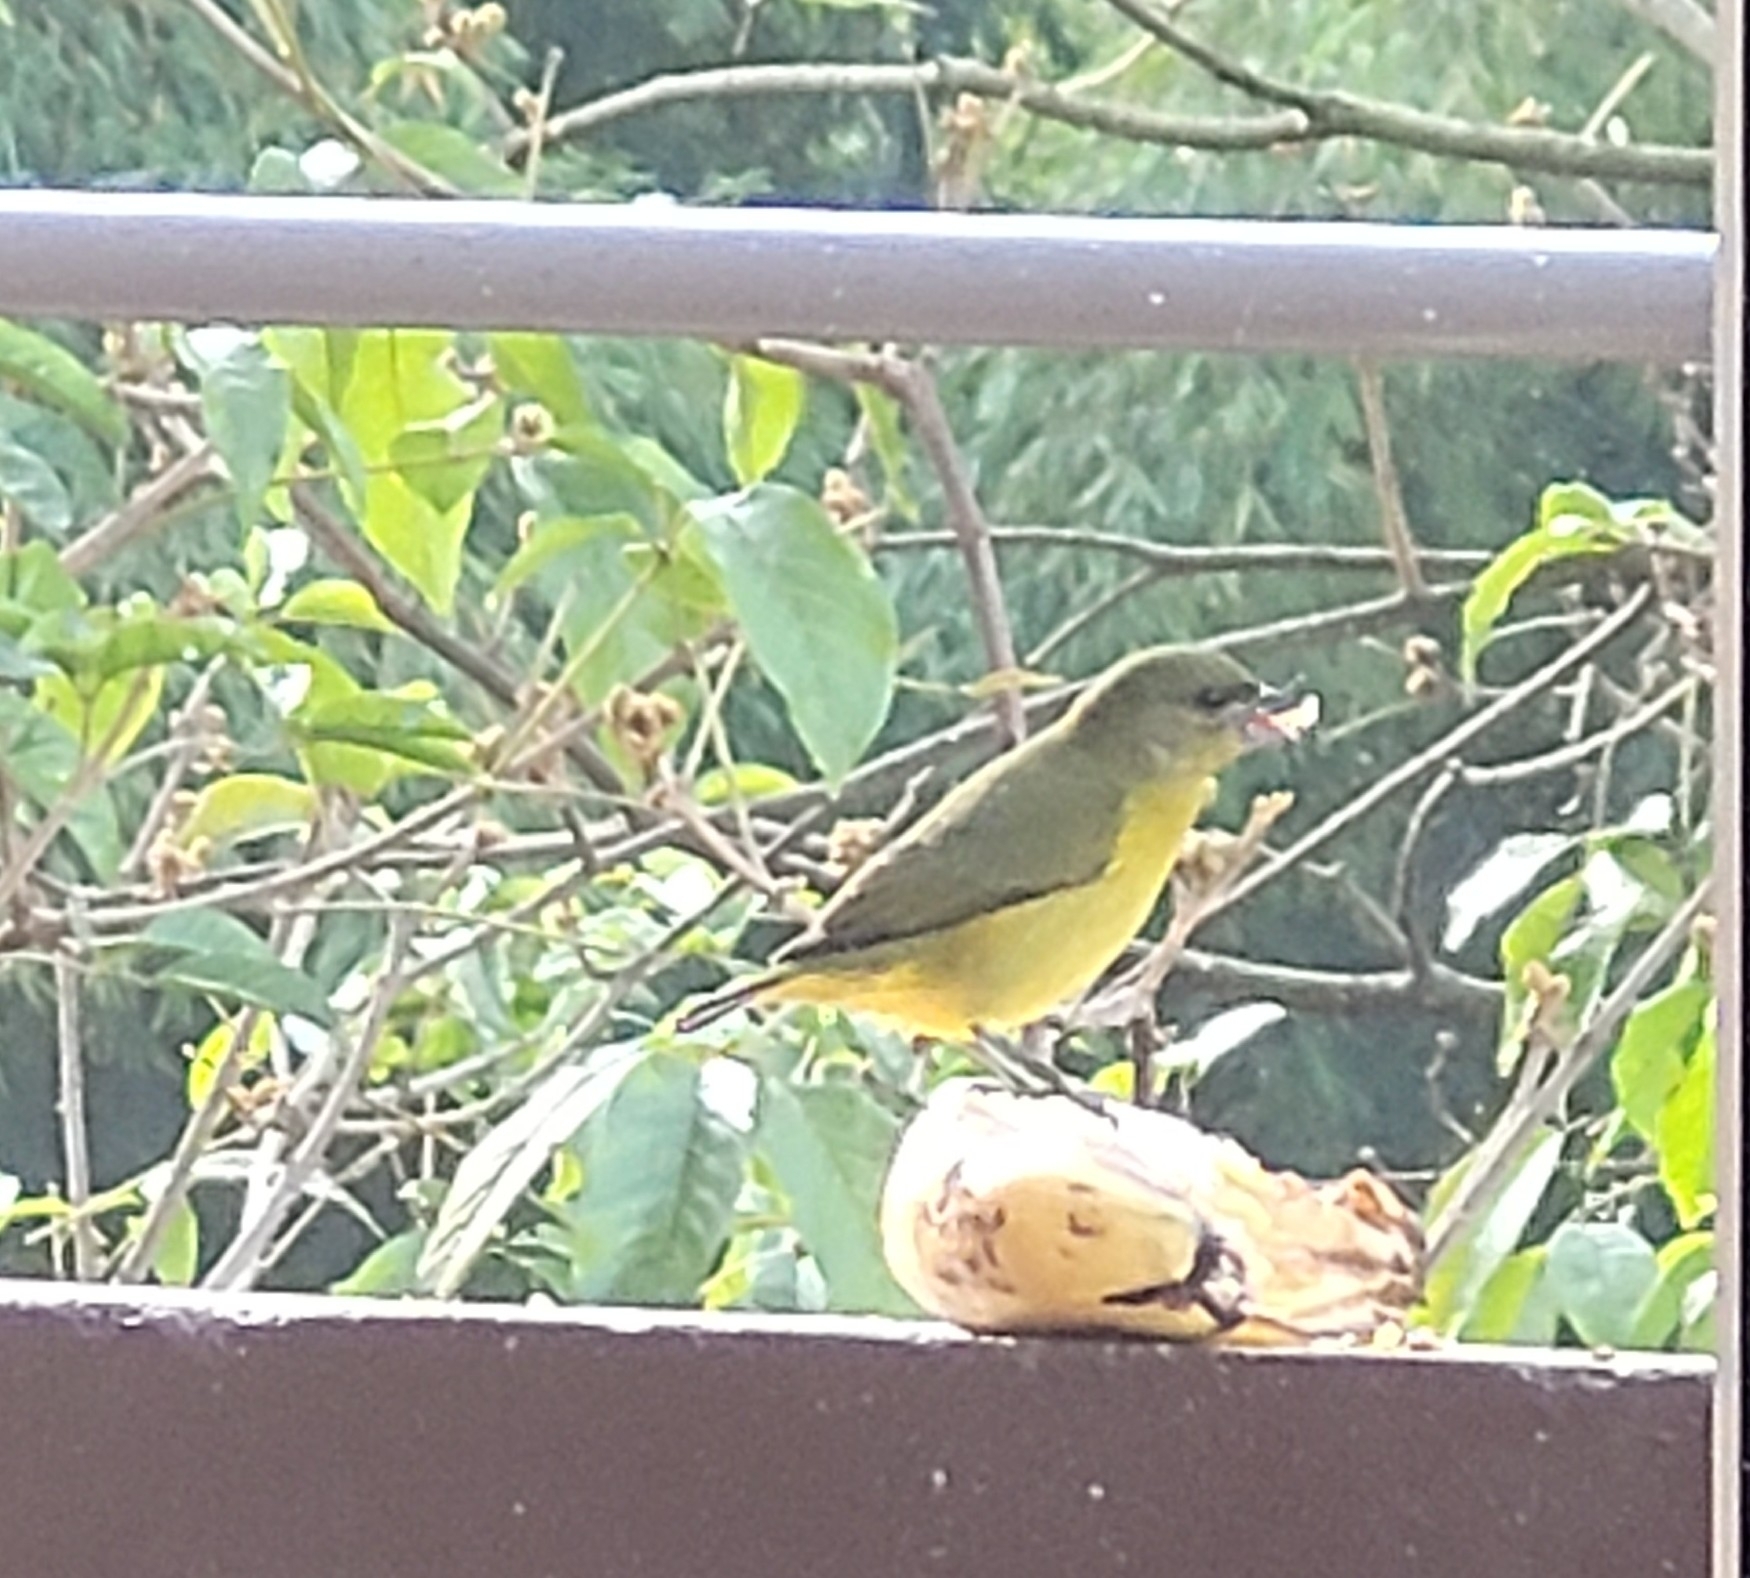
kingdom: Animalia
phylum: Chordata
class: Aves
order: Passeriformes
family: Fringillidae
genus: Euphonia
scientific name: Euphonia laniirostris
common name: Thick-billed euphonia
